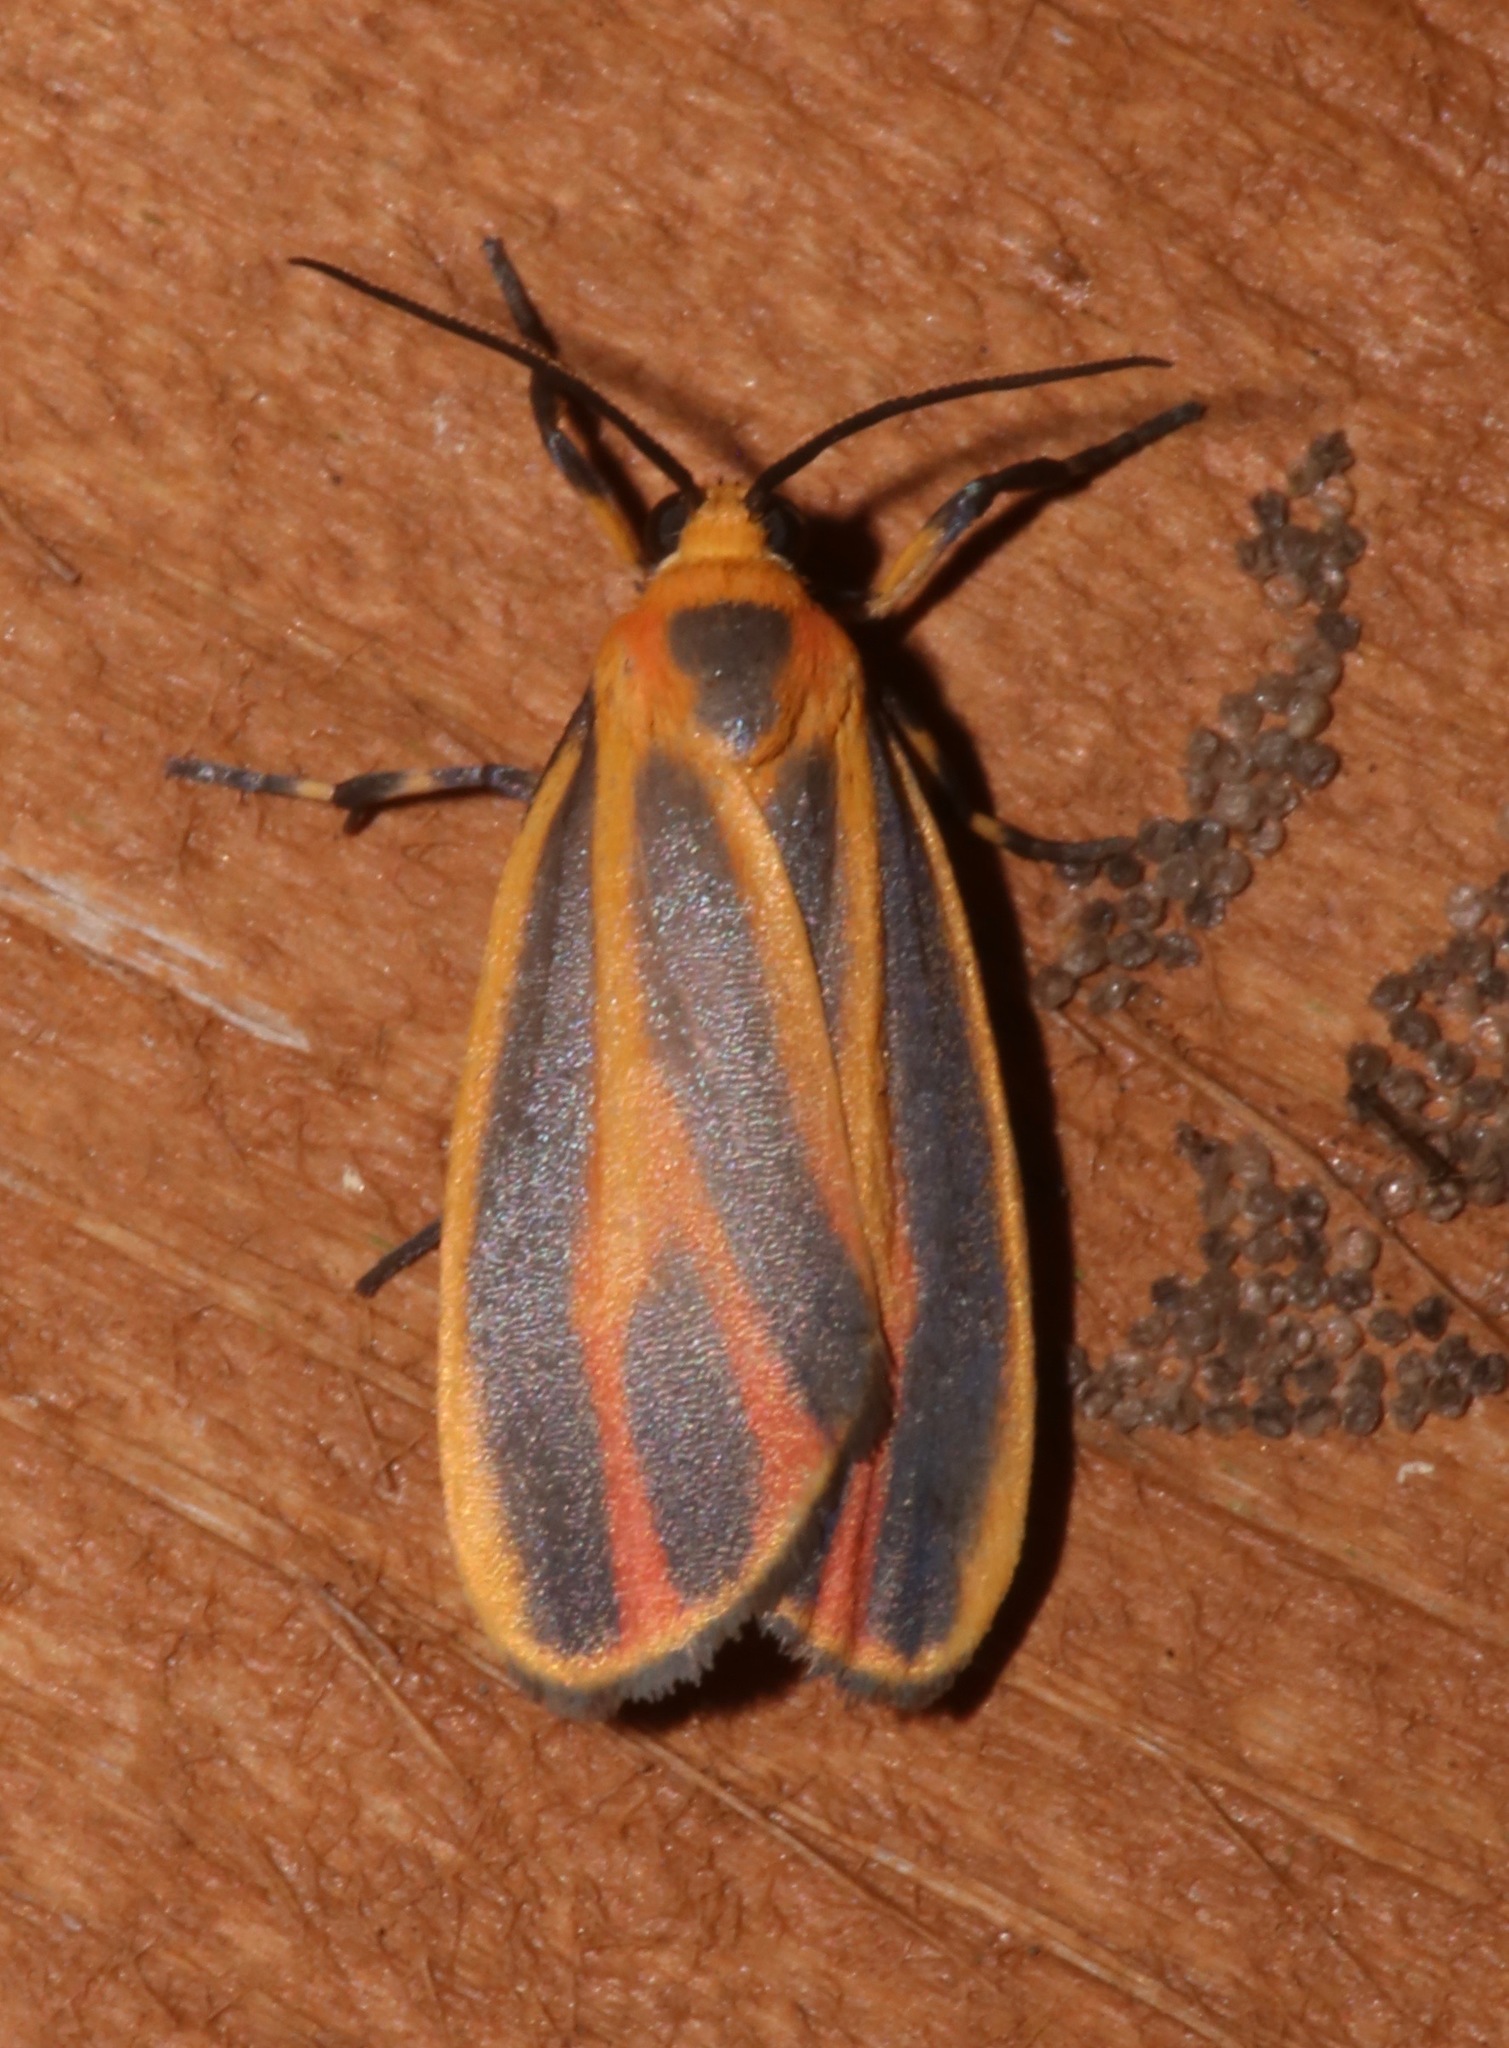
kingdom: Animalia
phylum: Arthropoda
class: Insecta
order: Lepidoptera
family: Erebidae
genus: Hypoprepia
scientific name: Hypoprepia fucosa
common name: Painted lichen moth
